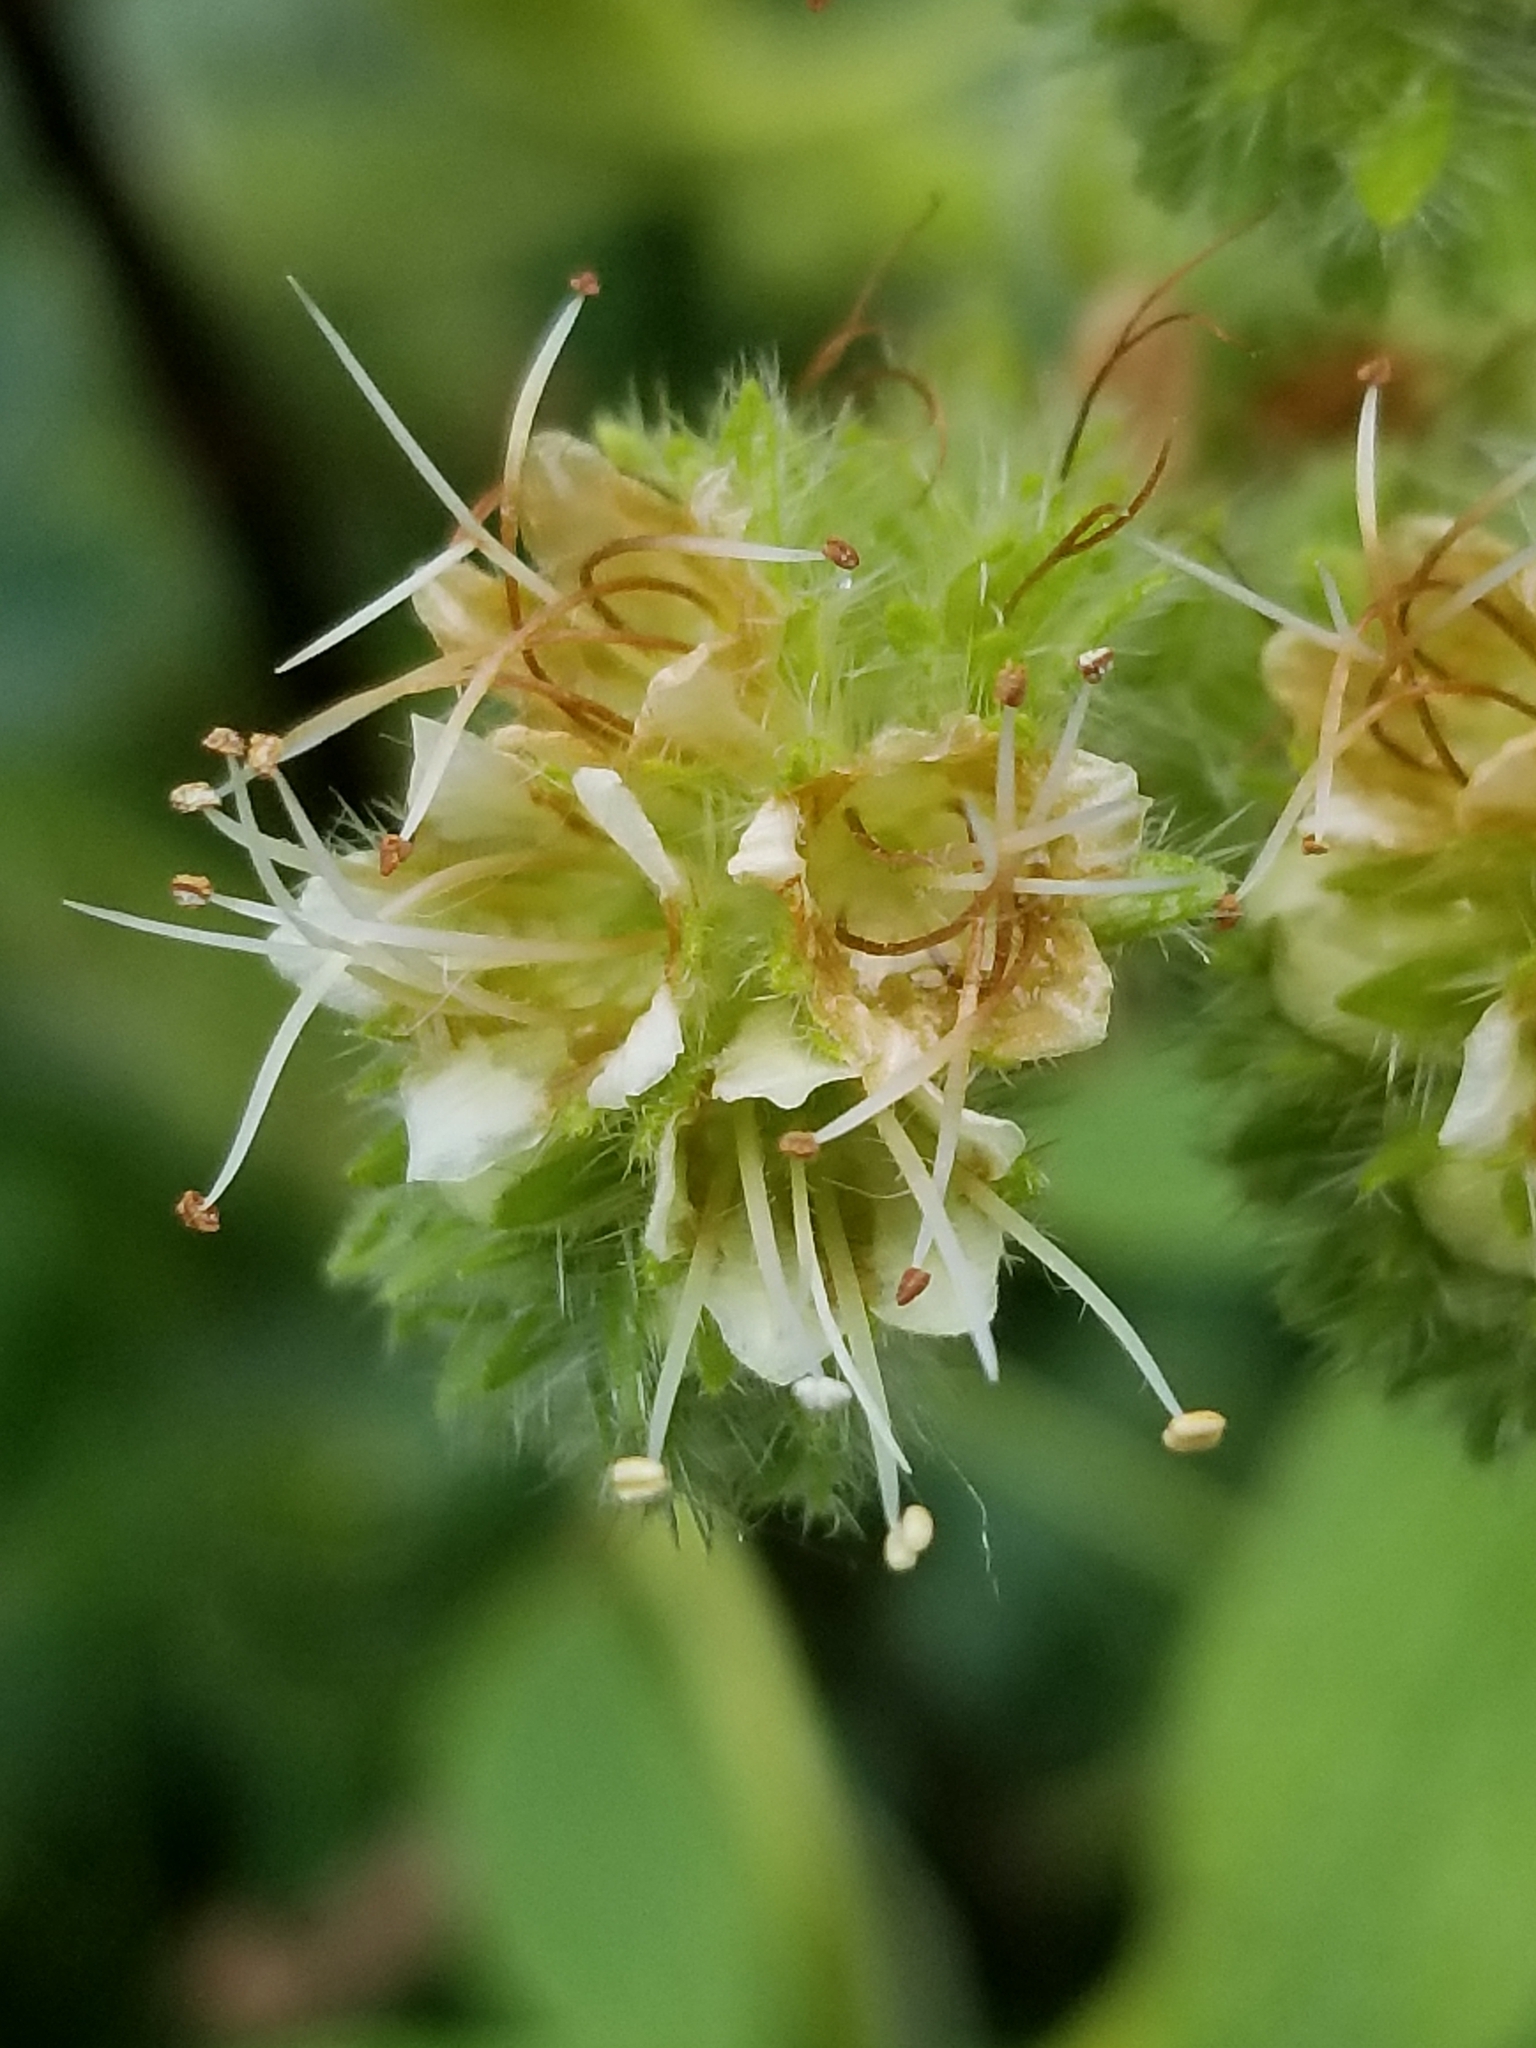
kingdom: Plantae
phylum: Tracheophyta
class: Magnoliopsida
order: Boraginales
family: Hydrophyllaceae
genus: Phacelia
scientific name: Phacelia nemoralis
